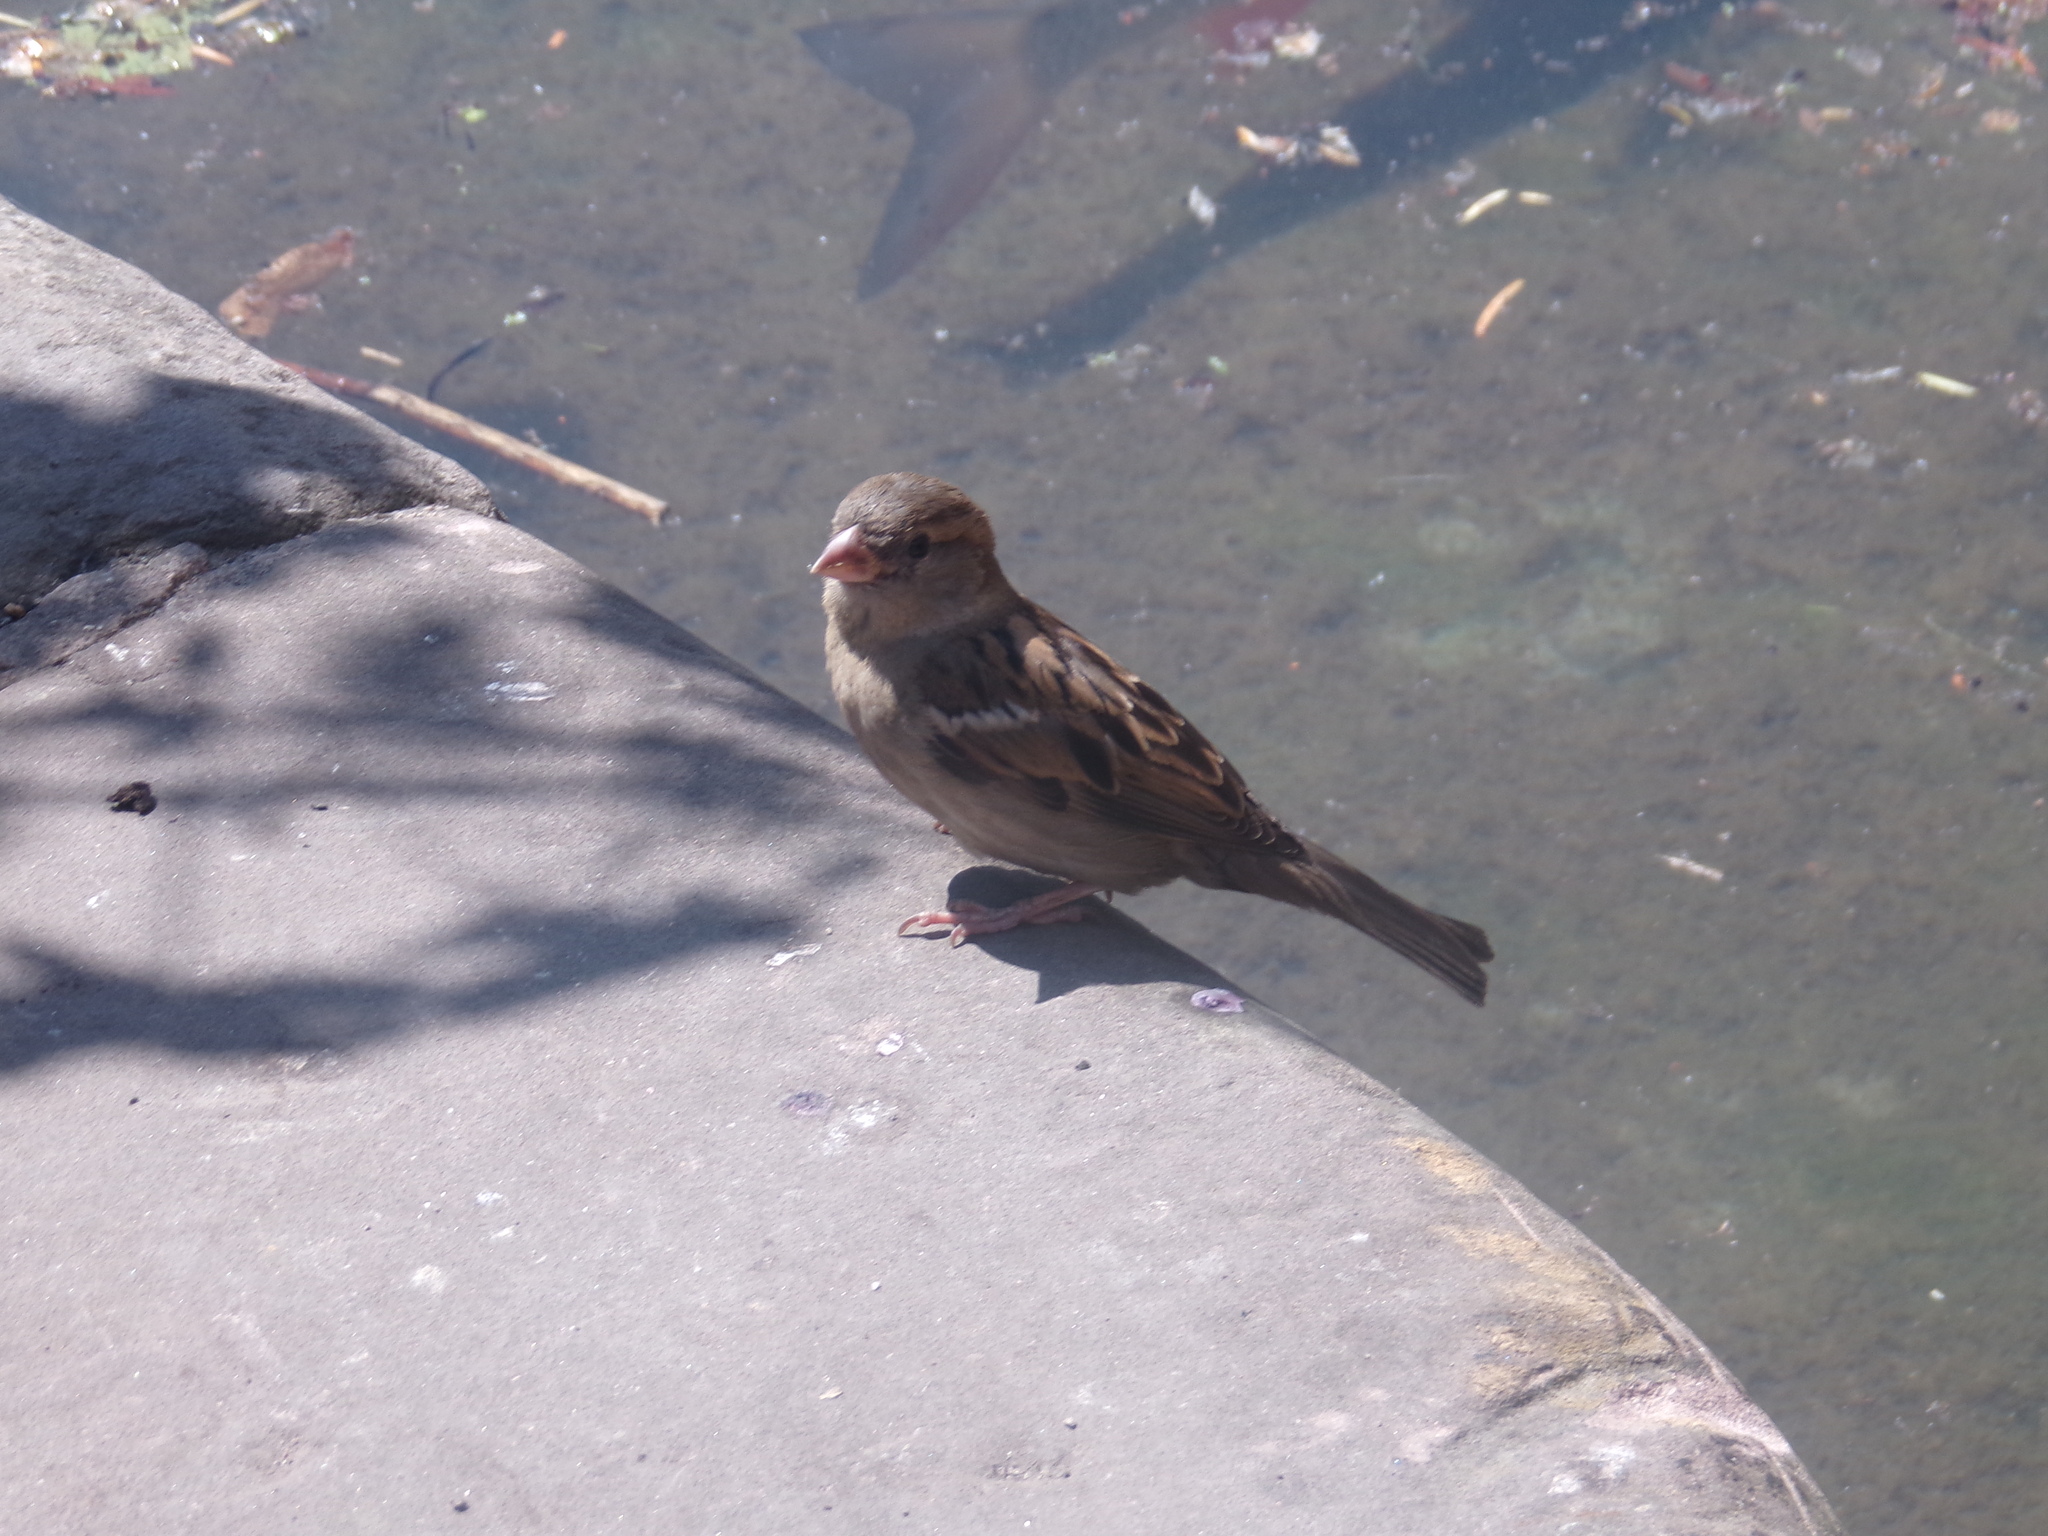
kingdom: Animalia
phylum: Chordata
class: Aves
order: Passeriformes
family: Passeridae
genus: Passer
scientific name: Passer domesticus
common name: House sparrow
